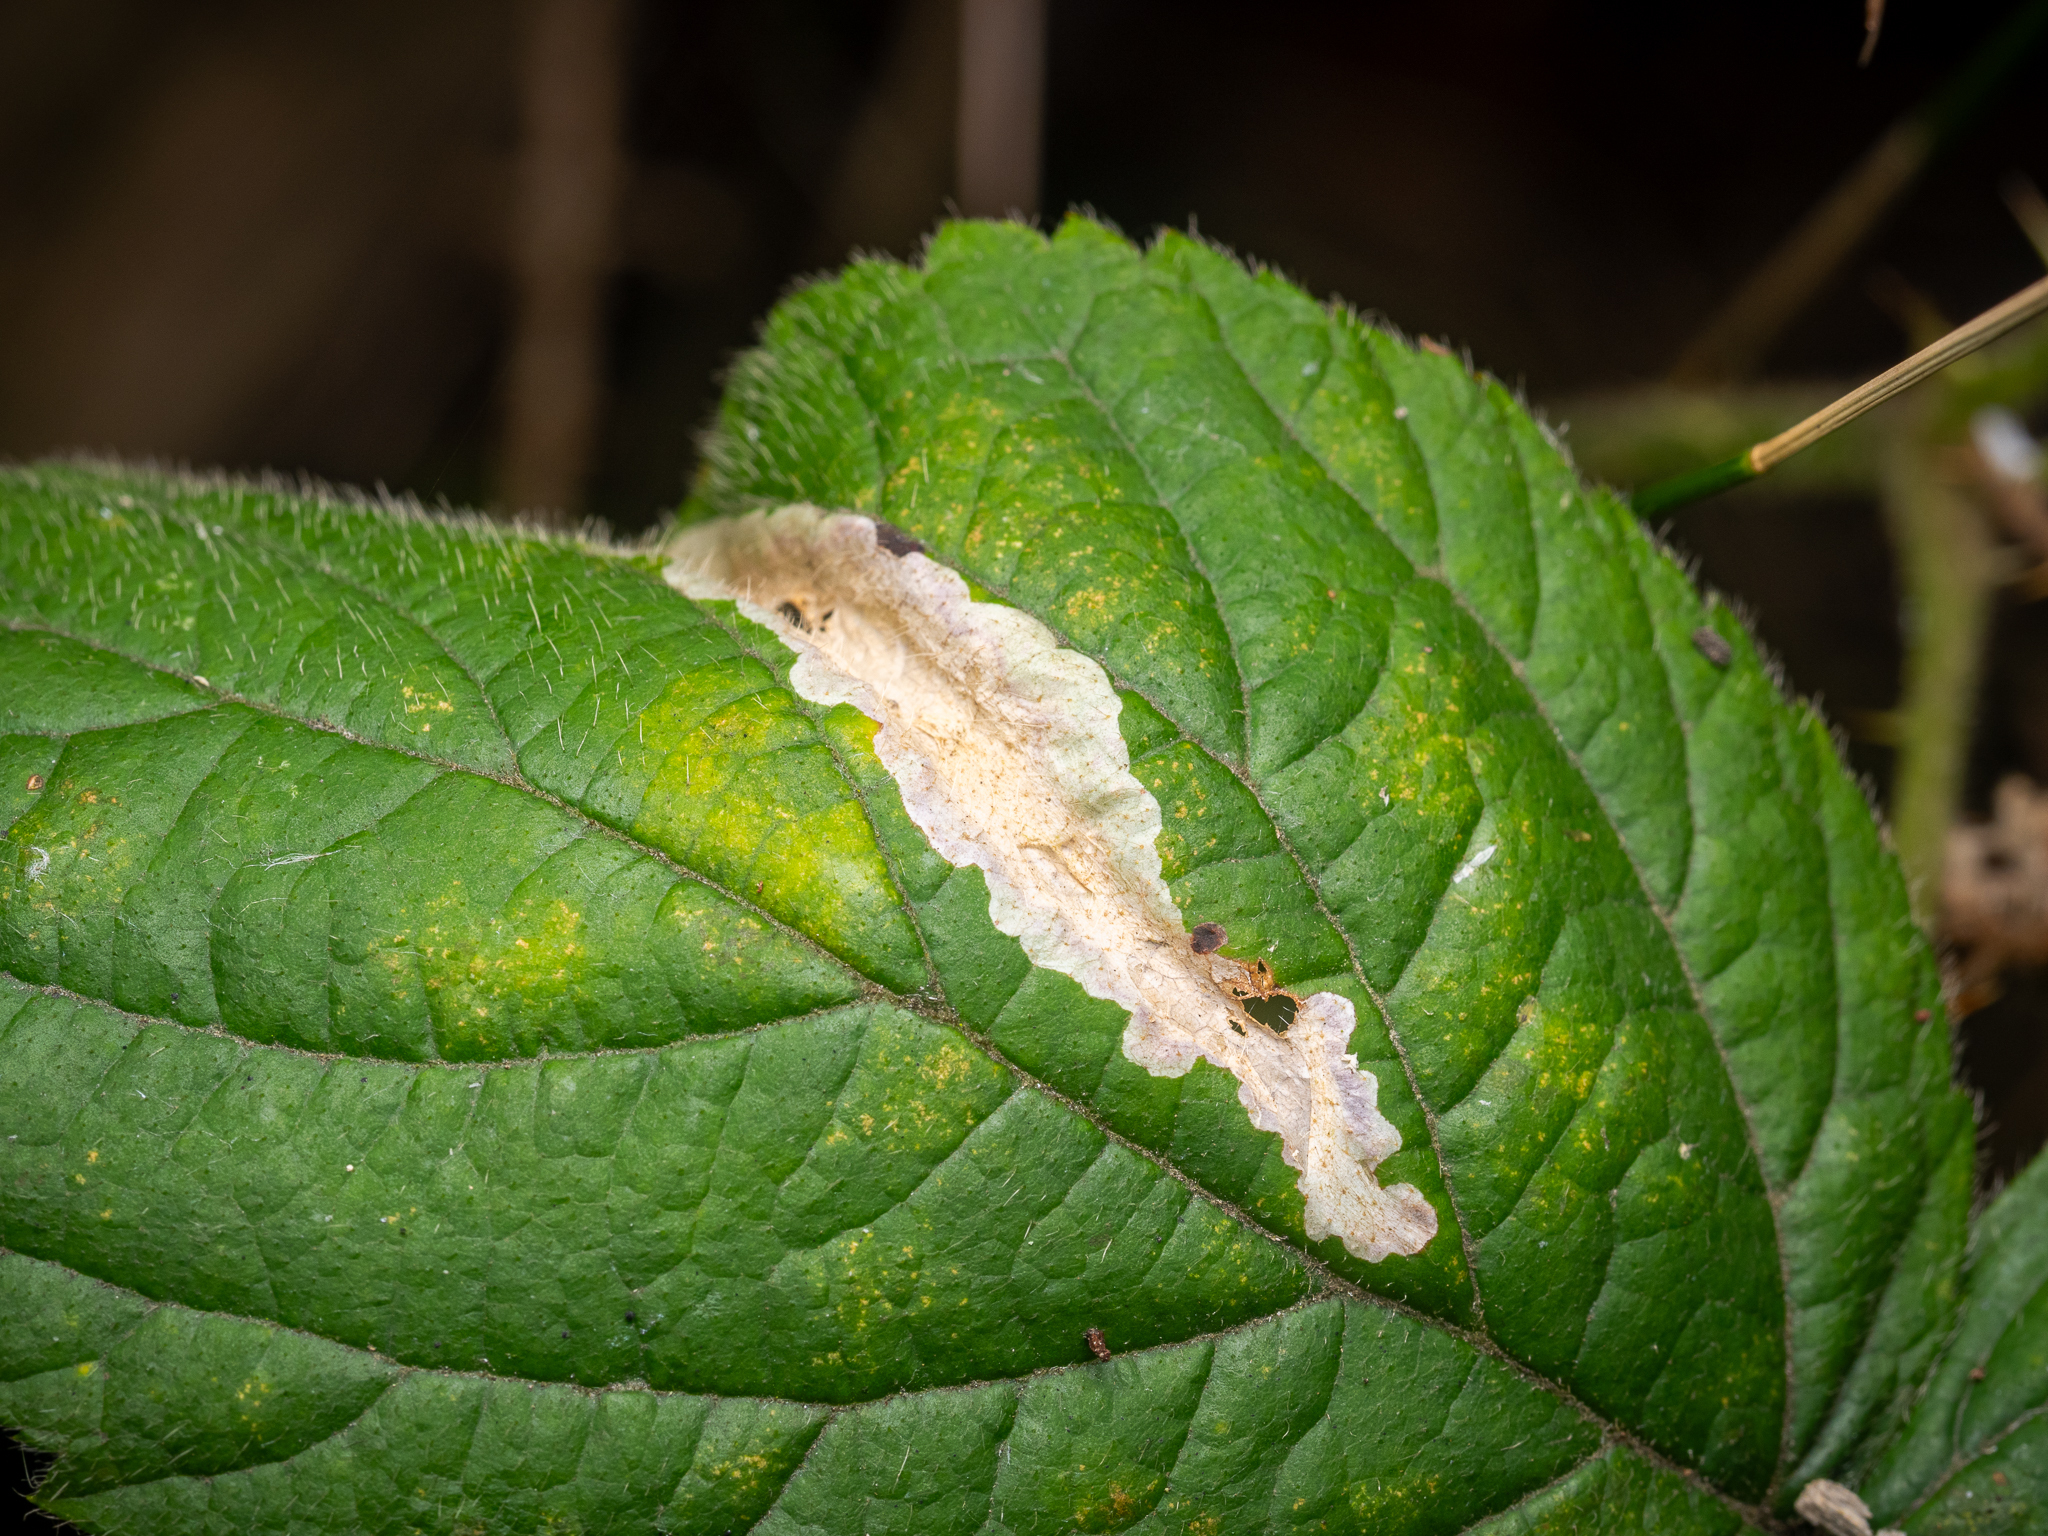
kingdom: Animalia
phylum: Arthropoda
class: Insecta
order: Lepidoptera
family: Tischeriidae
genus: Coptotriche
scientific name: Coptotriche marginea
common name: Bordered carl
